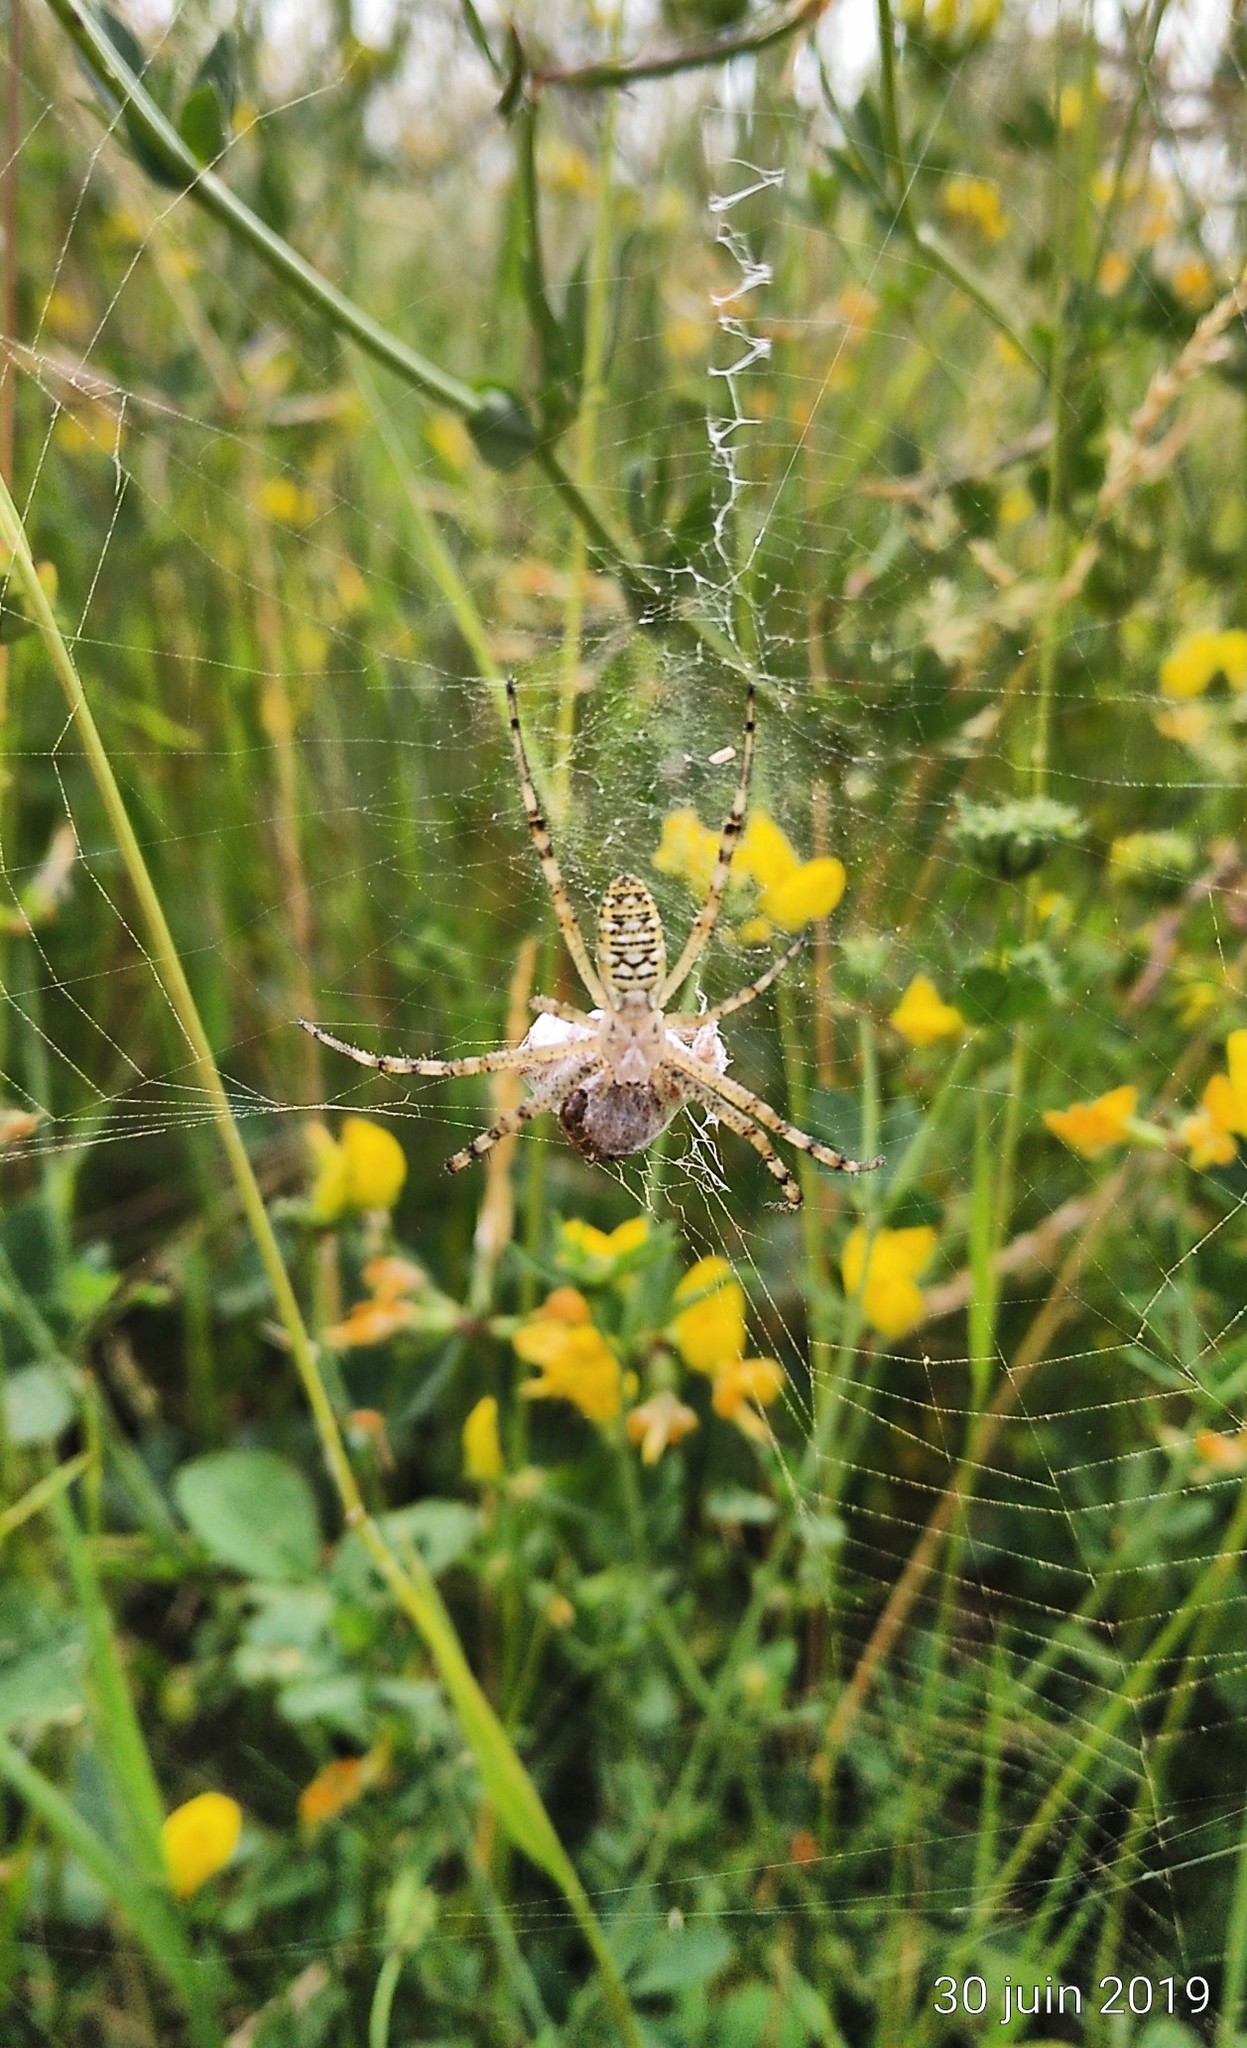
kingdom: Animalia
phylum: Arthropoda
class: Arachnida
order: Araneae
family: Araneidae
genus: Argiope
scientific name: Argiope bruennichi
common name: Wasp spider
